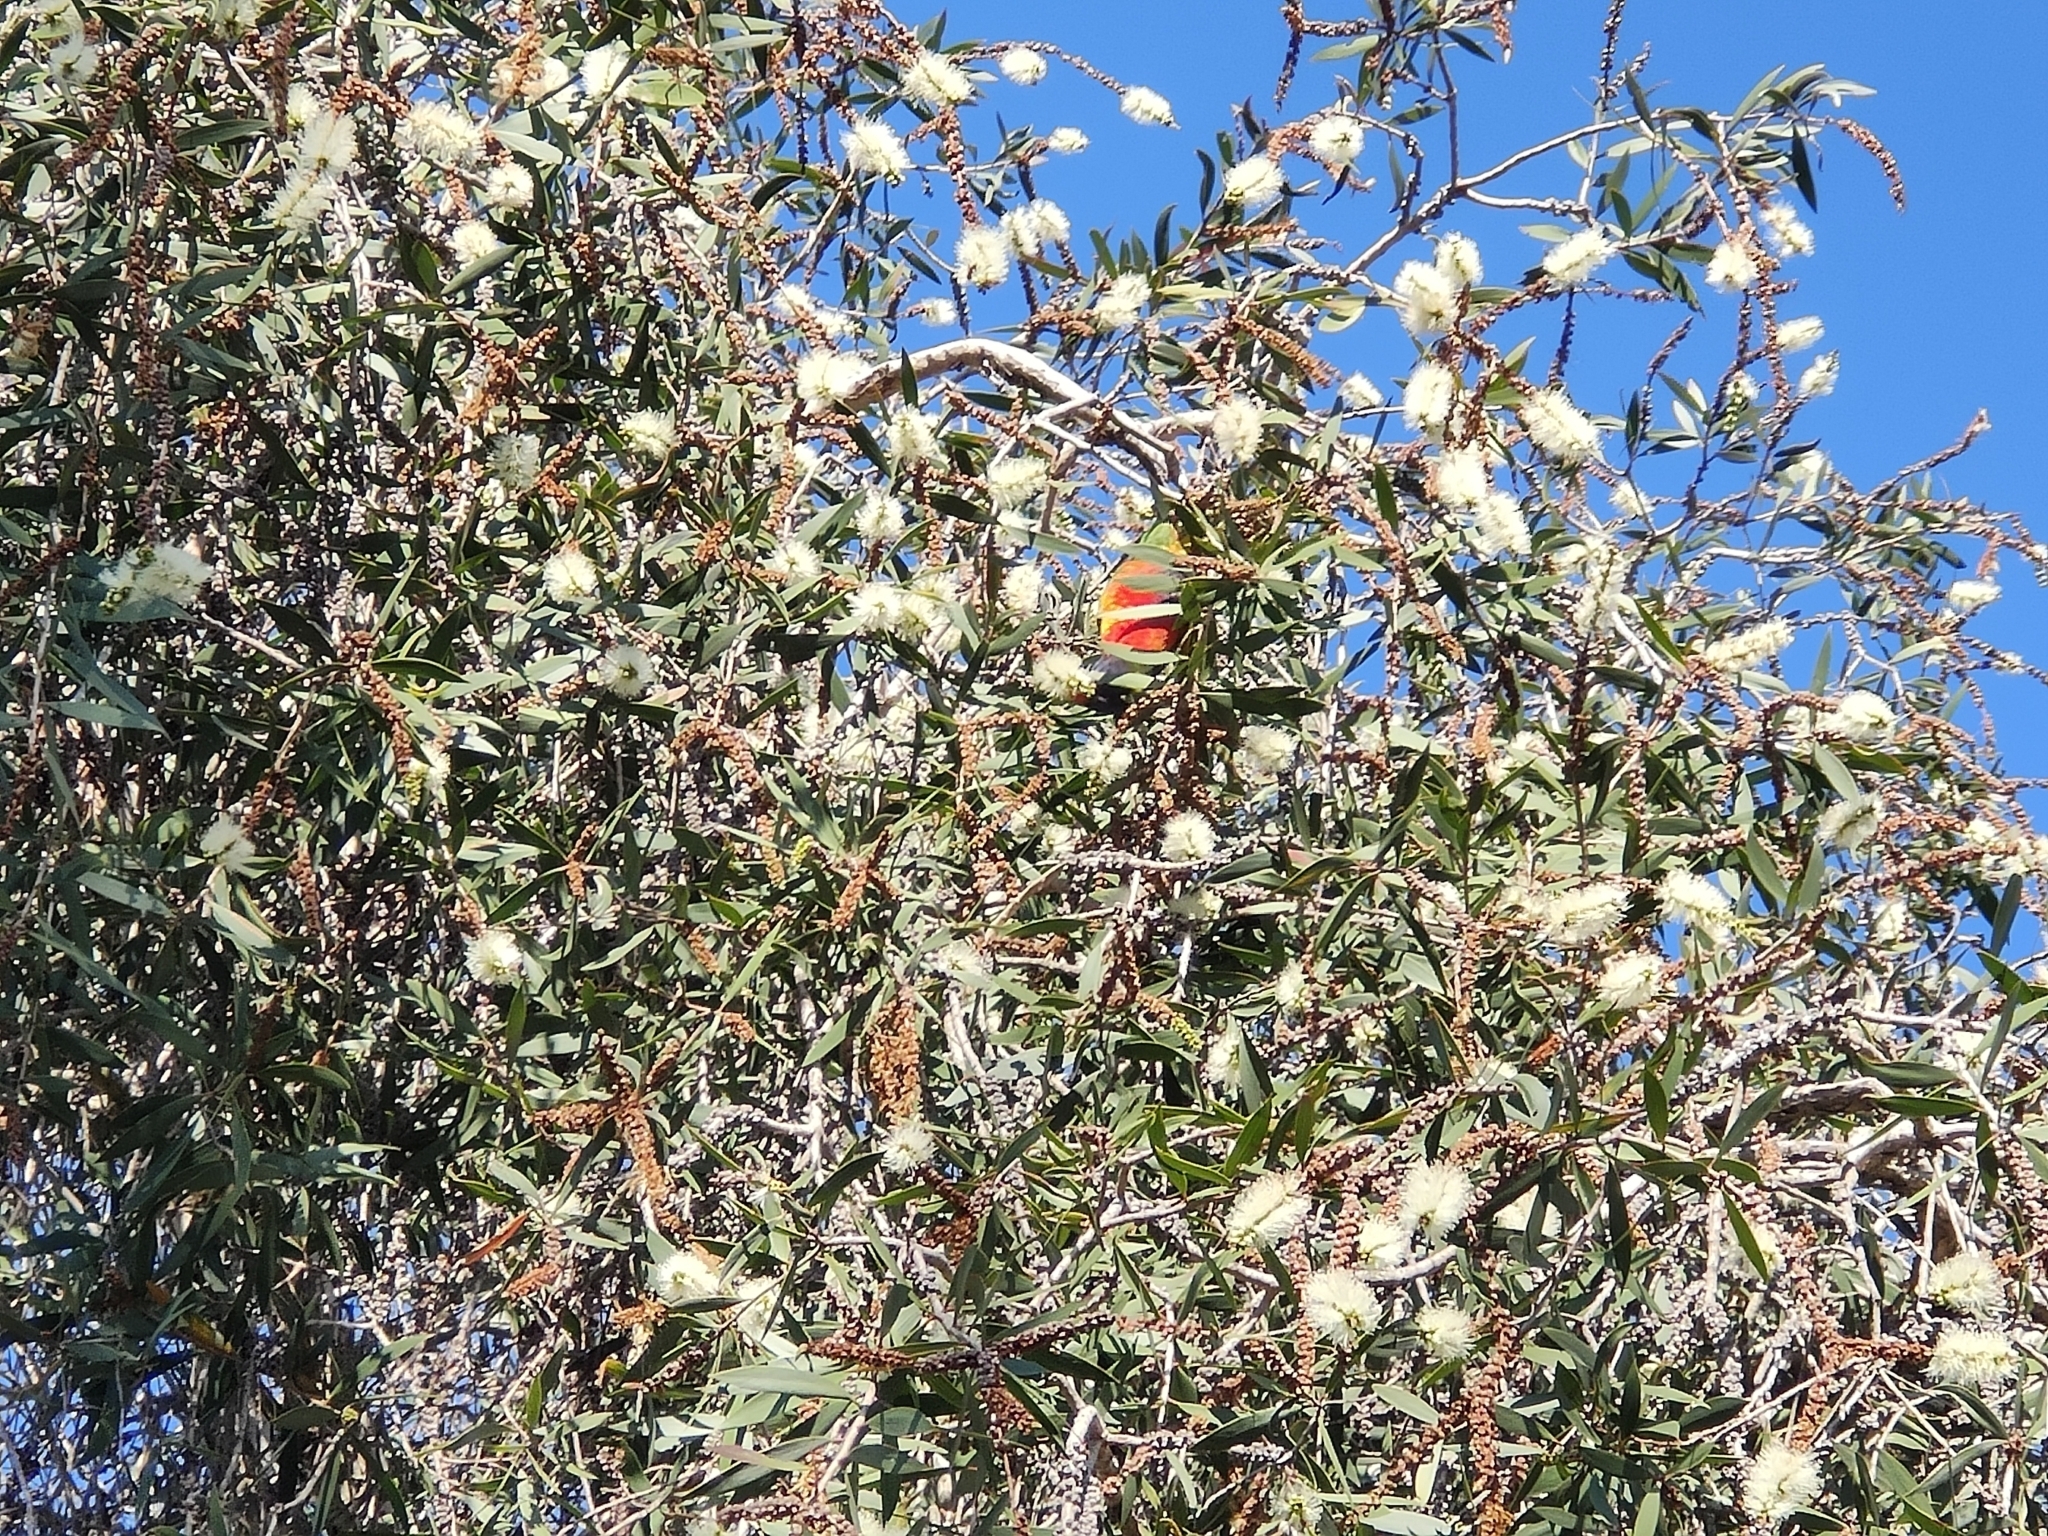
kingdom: Animalia
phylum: Chordata
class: Aves
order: Psittaciformes
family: Psittacidae
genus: Trichoglossus
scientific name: Trichoglossus haematodus
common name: Coconut lorikeet
